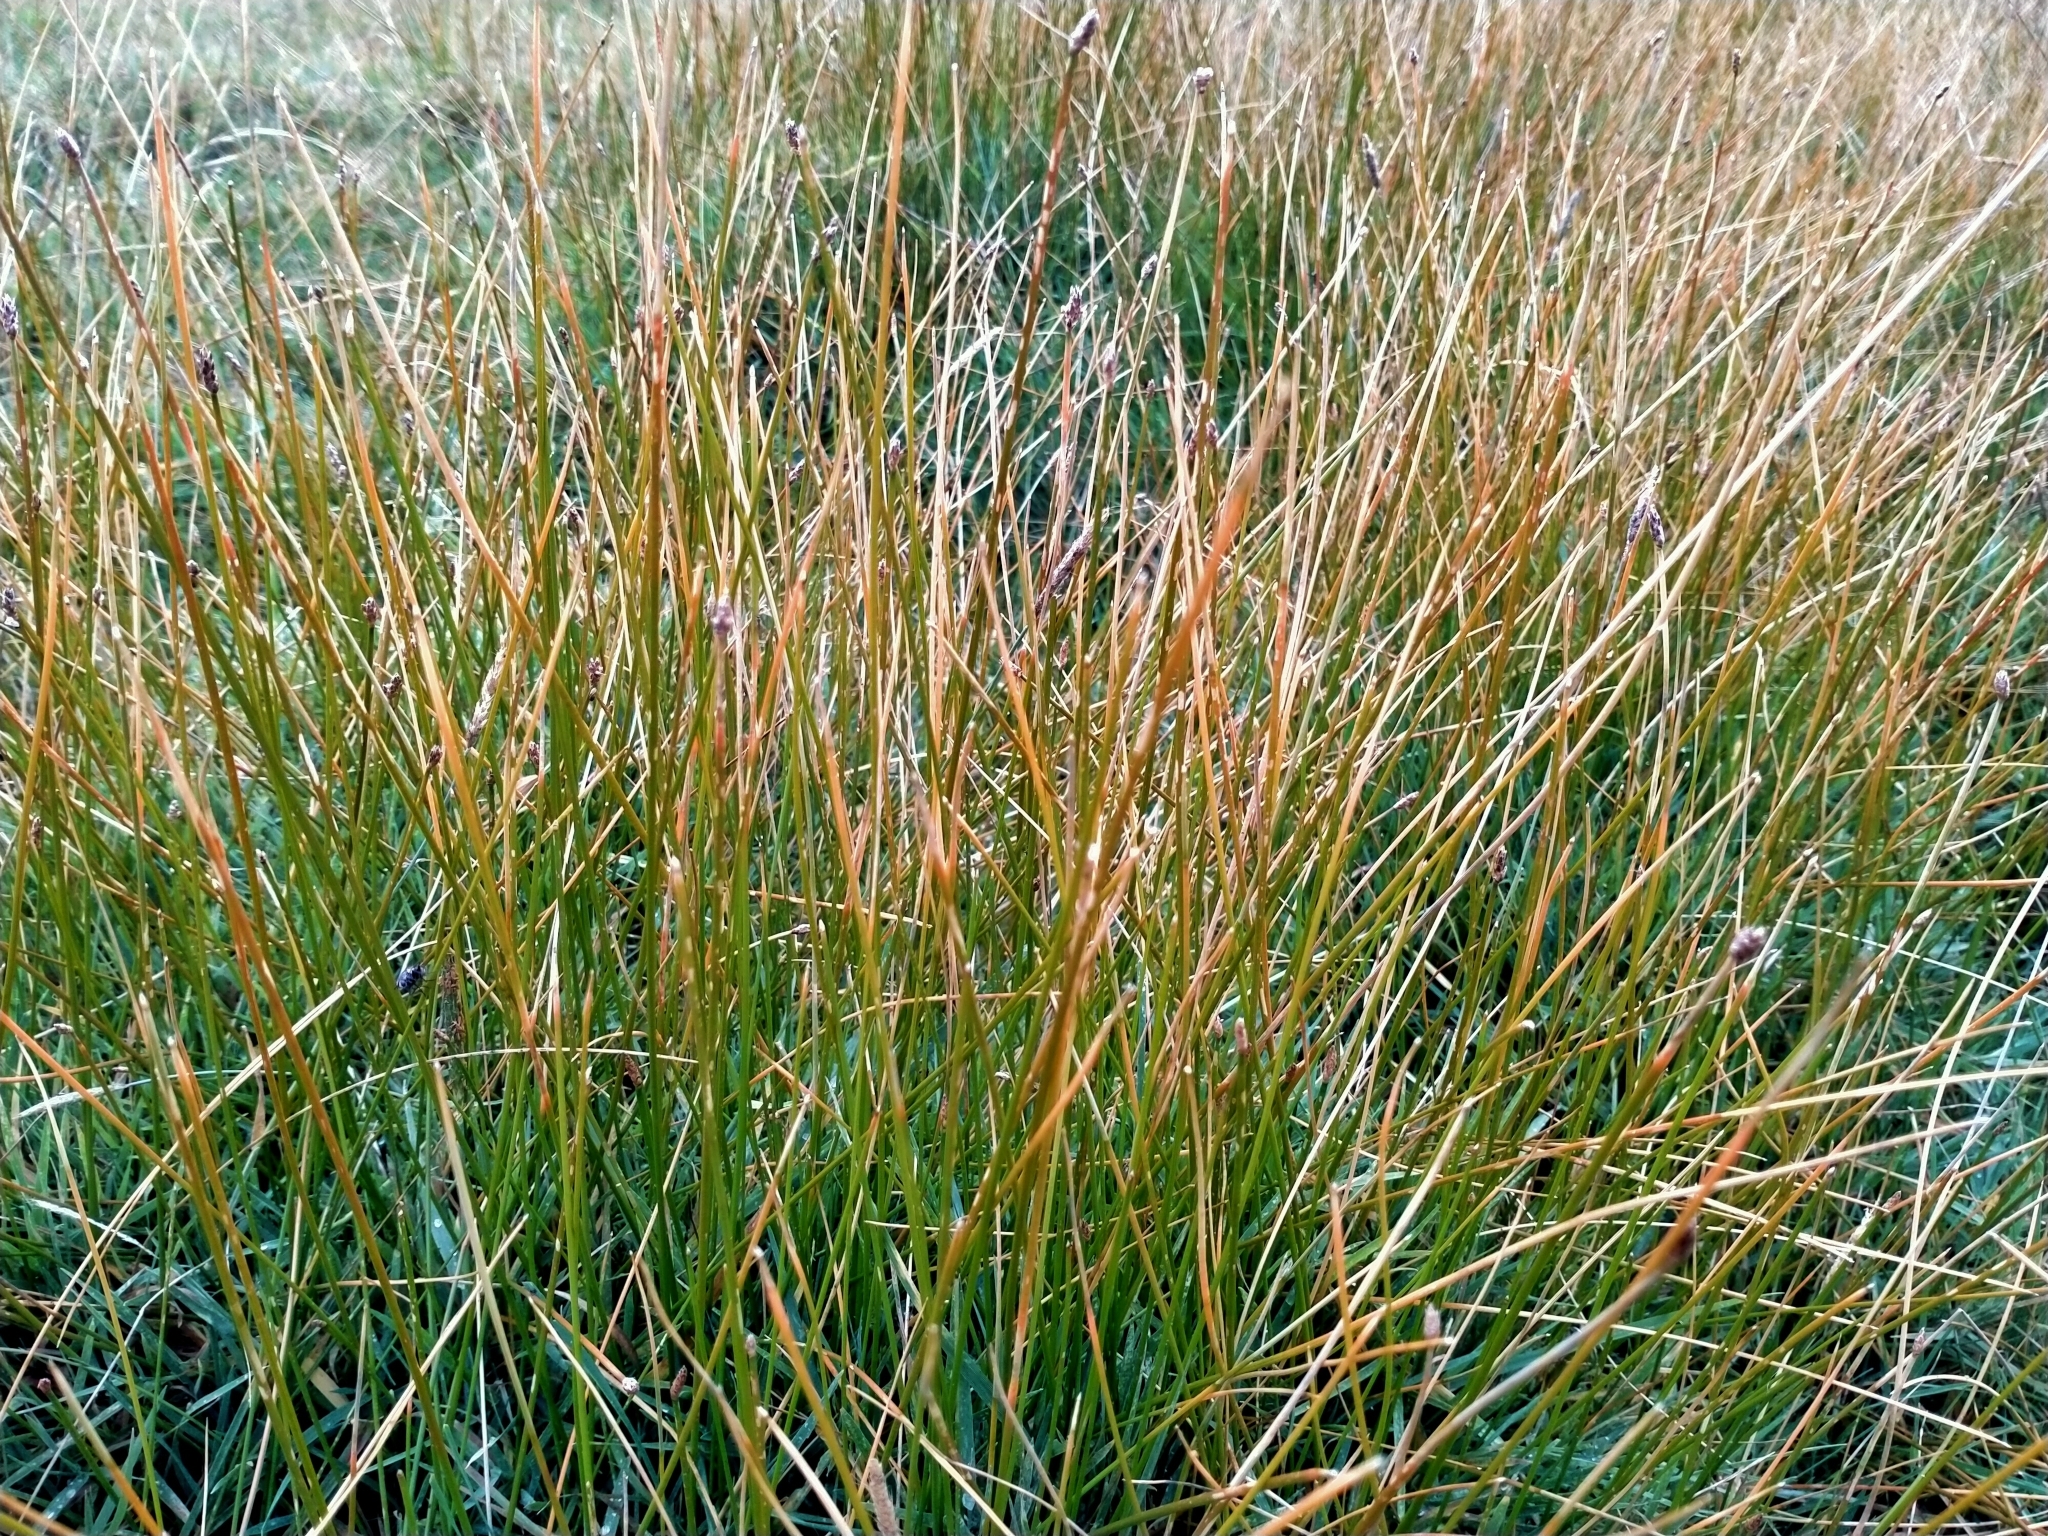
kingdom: Plantae
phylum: Tracheophyta
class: Liliopsida
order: Poales
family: Cyperaceae
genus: Eleocharis
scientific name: Eleocharis acuta
